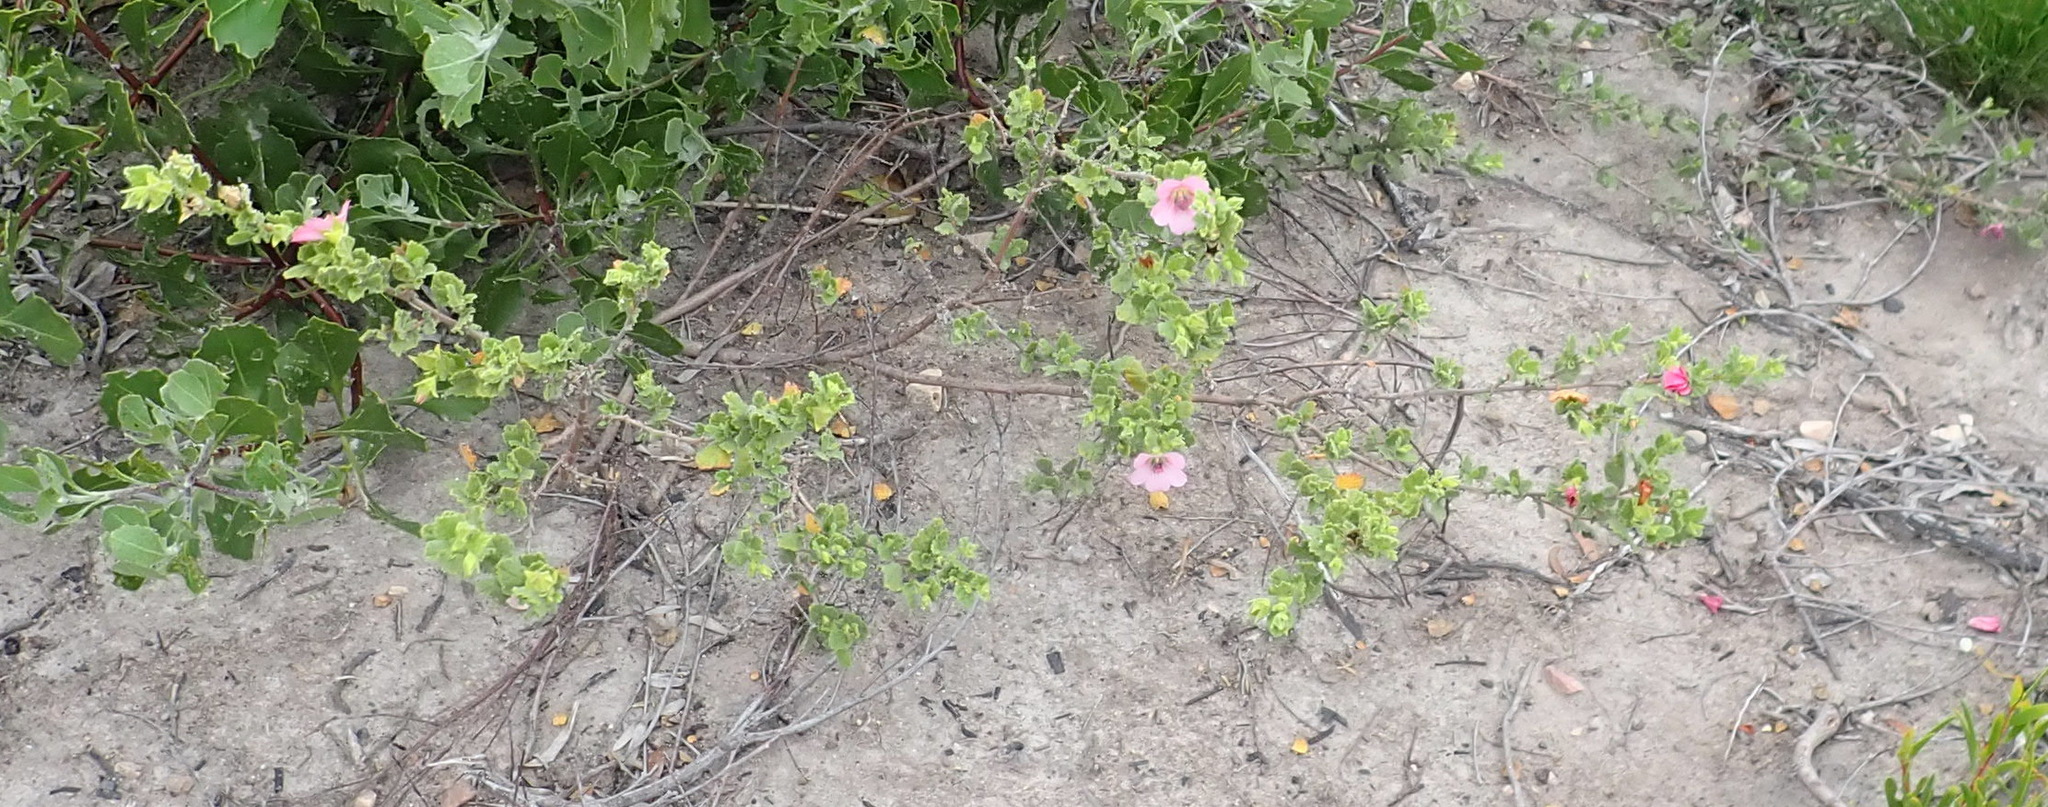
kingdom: Plantae
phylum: Tracheophyta
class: Magnoliopsida
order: Malvales
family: Malvaceae
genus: Anisodontea
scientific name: Anisodontea scabrosa
